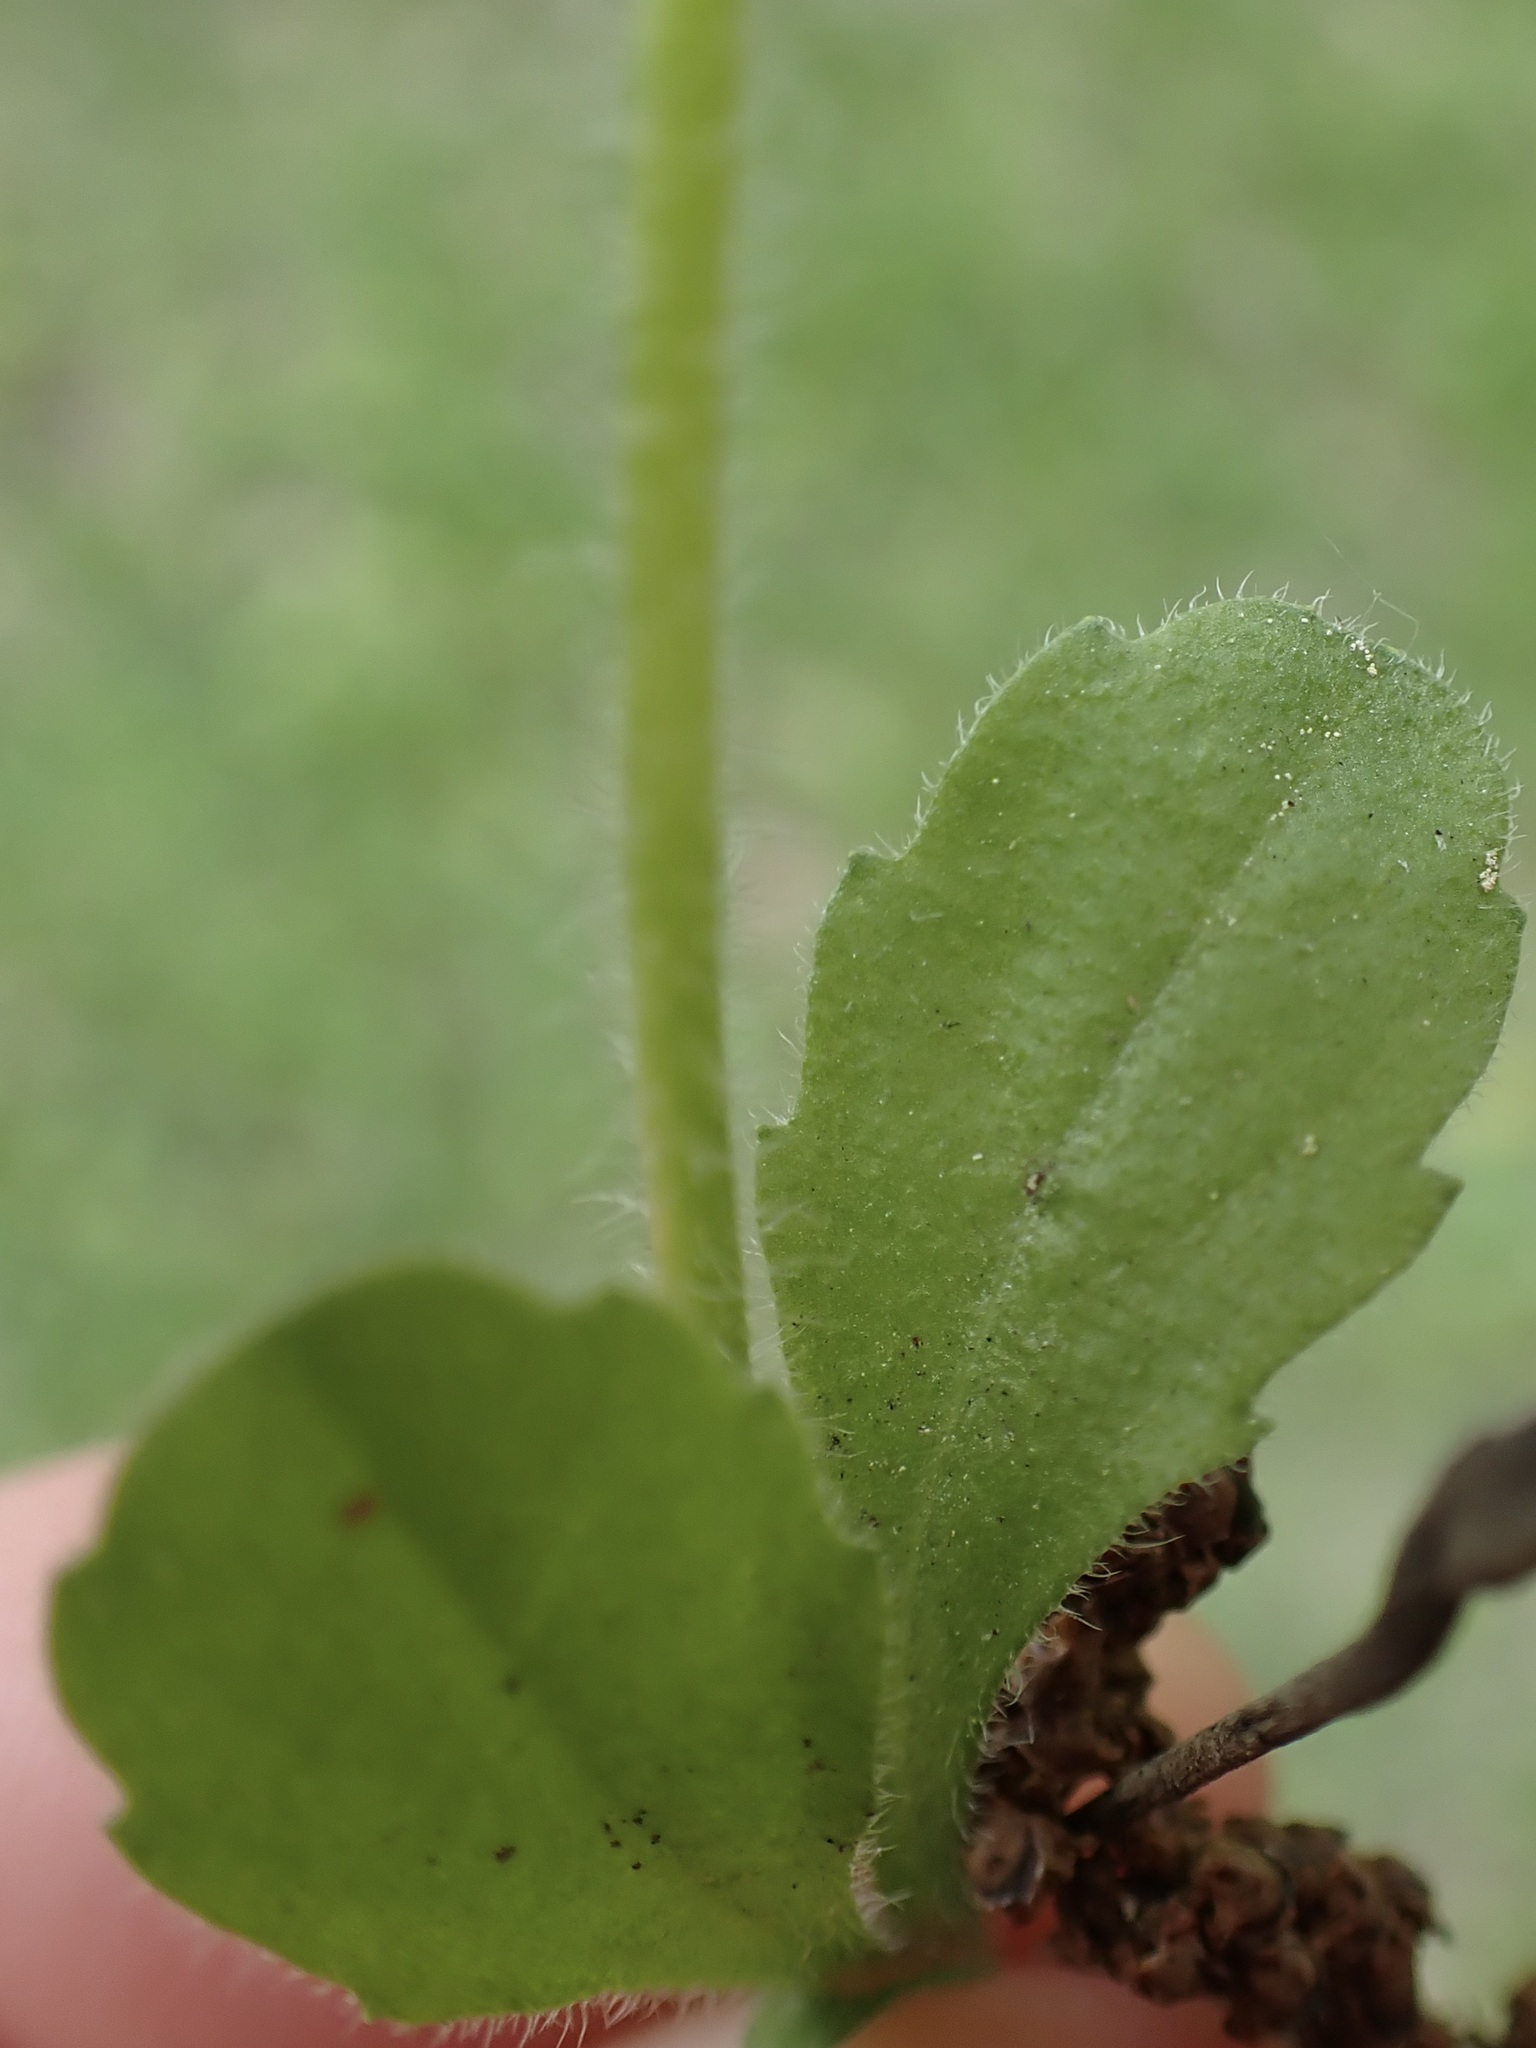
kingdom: Plantae
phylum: Tracheophyta
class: Magnoliopsida
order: Asterales
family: Asteraceae
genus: Bellis
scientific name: Bellis perennis
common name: Lawndaisy
